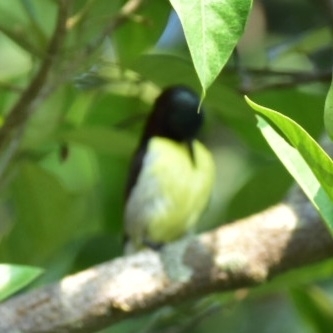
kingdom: Animalia
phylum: Chordata
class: Aves
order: Passeriformes
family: Nectariniidae
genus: Leptocoma
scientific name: Leptocoma zeylonica
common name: Purple-rumped sunbird
